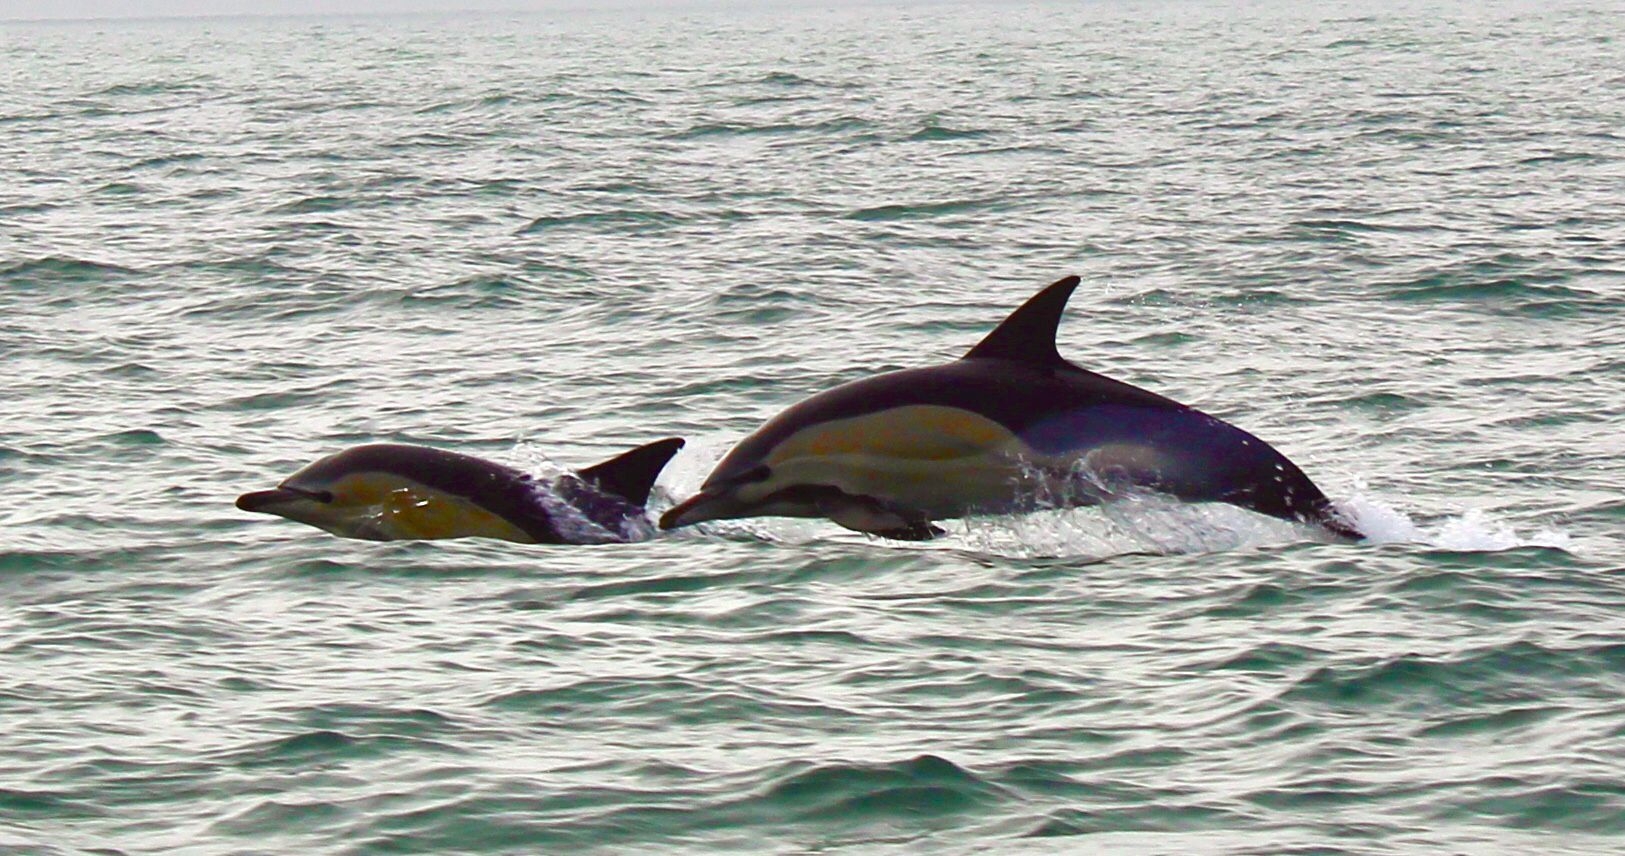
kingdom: Animalia
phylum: Chordata
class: Mammalia
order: Cetacea
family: Delphinidae
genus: Delphinus
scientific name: Delphinus delphis
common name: Common dolphin
